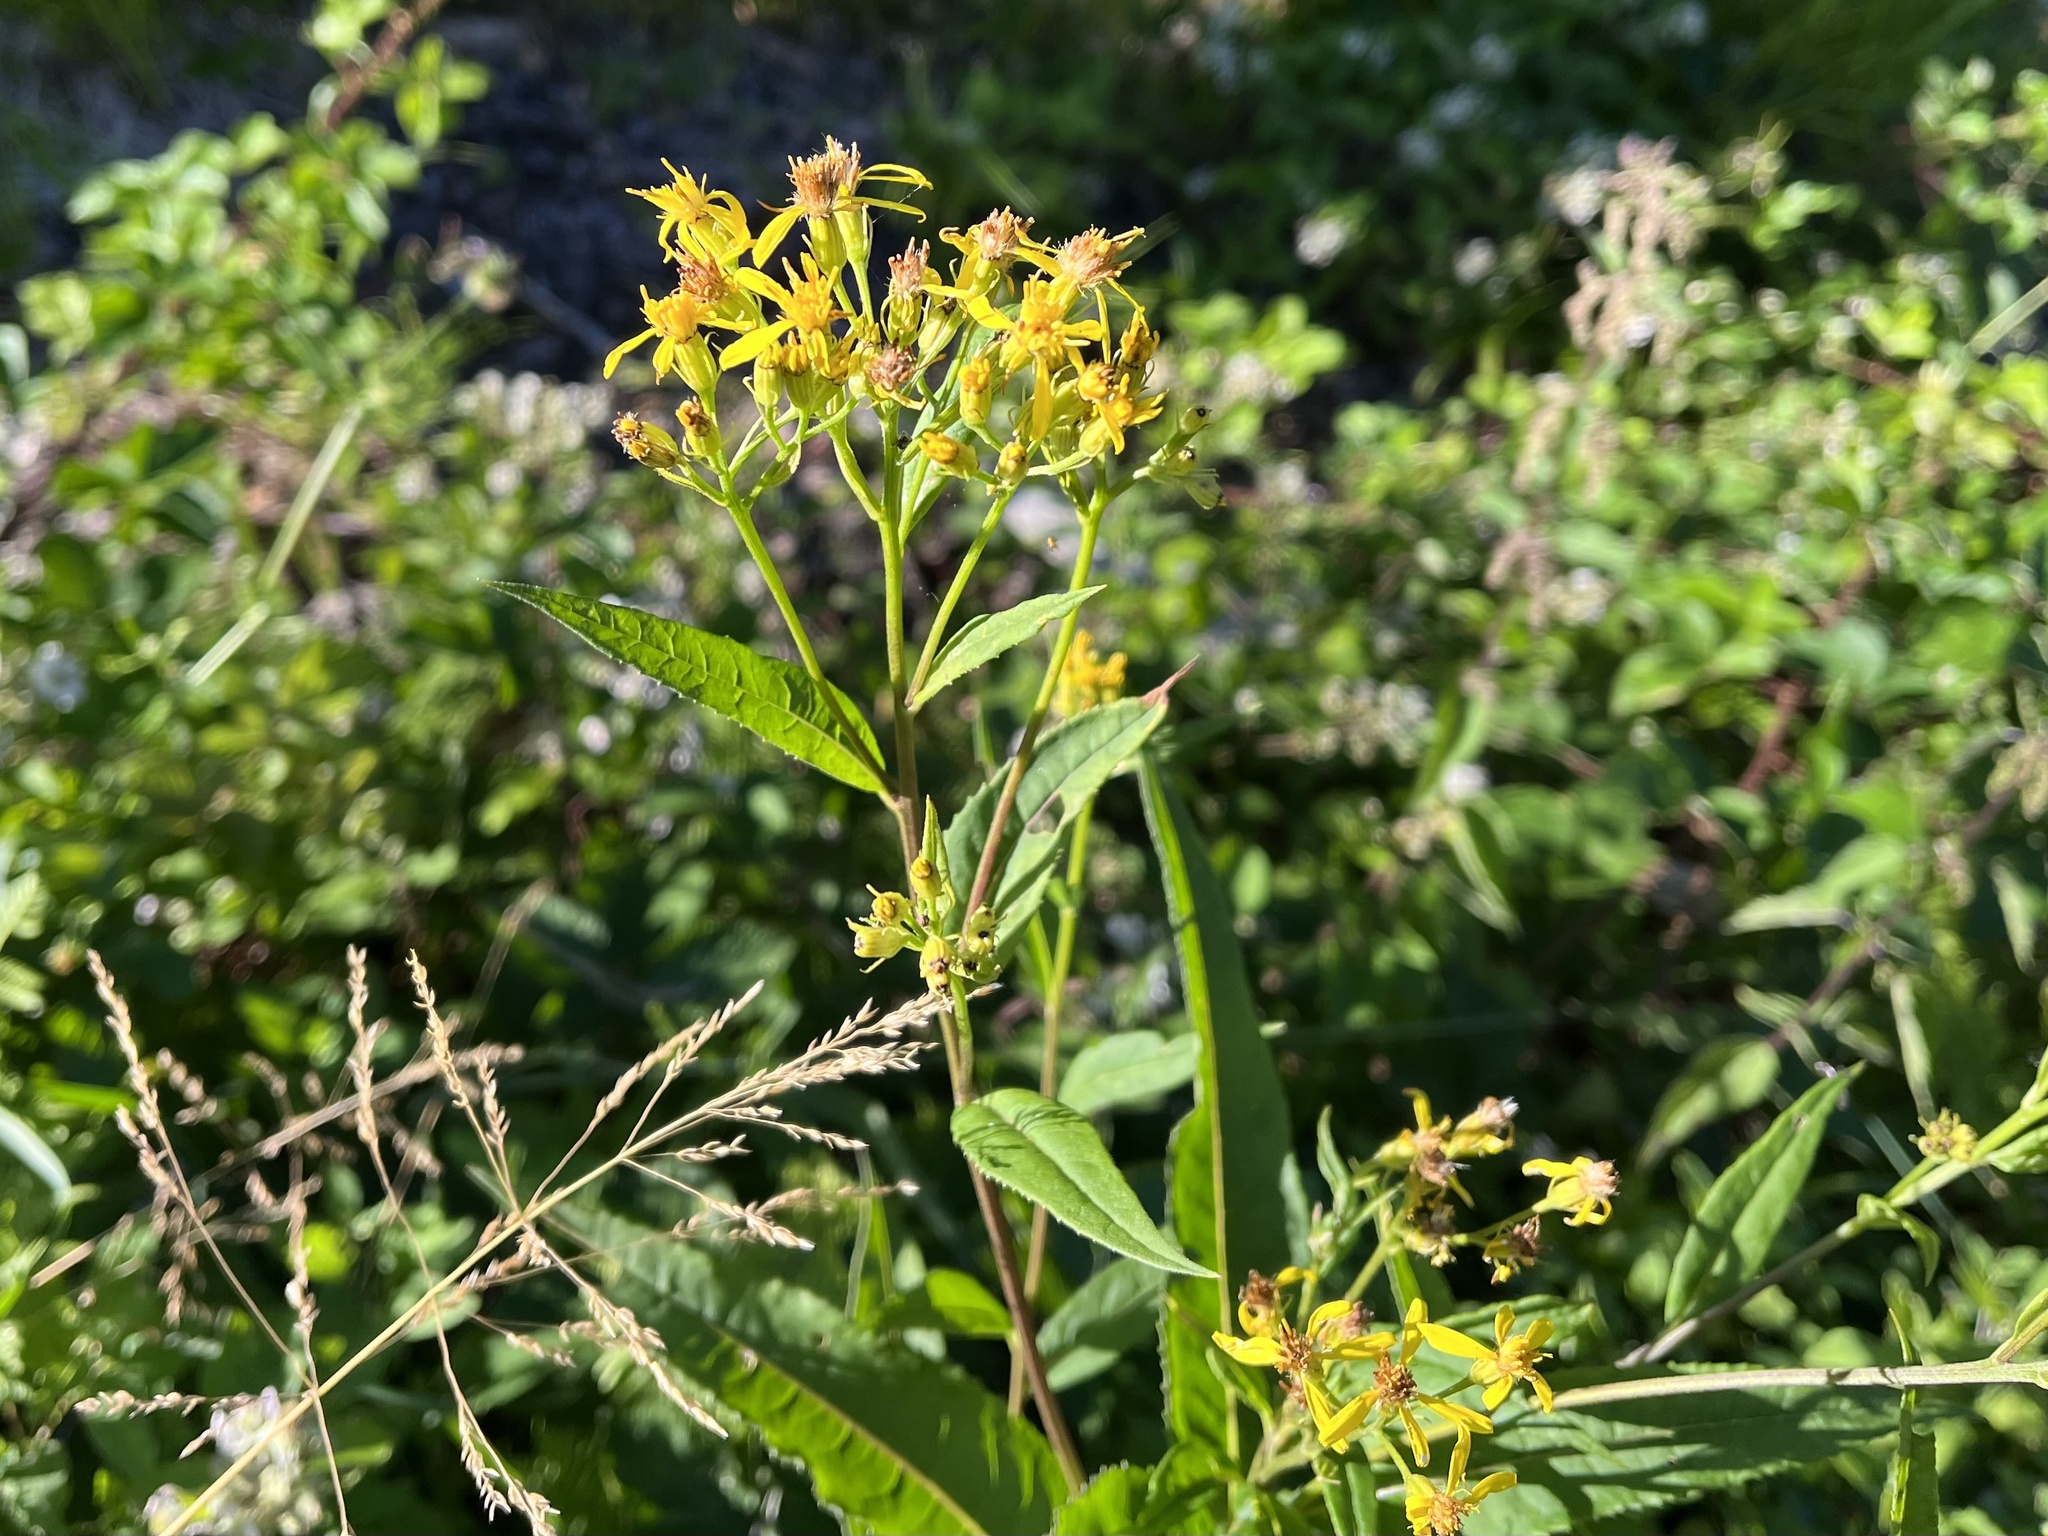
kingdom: Plantae
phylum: Tracheophyta
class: Magnoliopsida
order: Asterales
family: Asteraceae
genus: Senecio
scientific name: Senecio ovatus
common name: Wood ragwort
